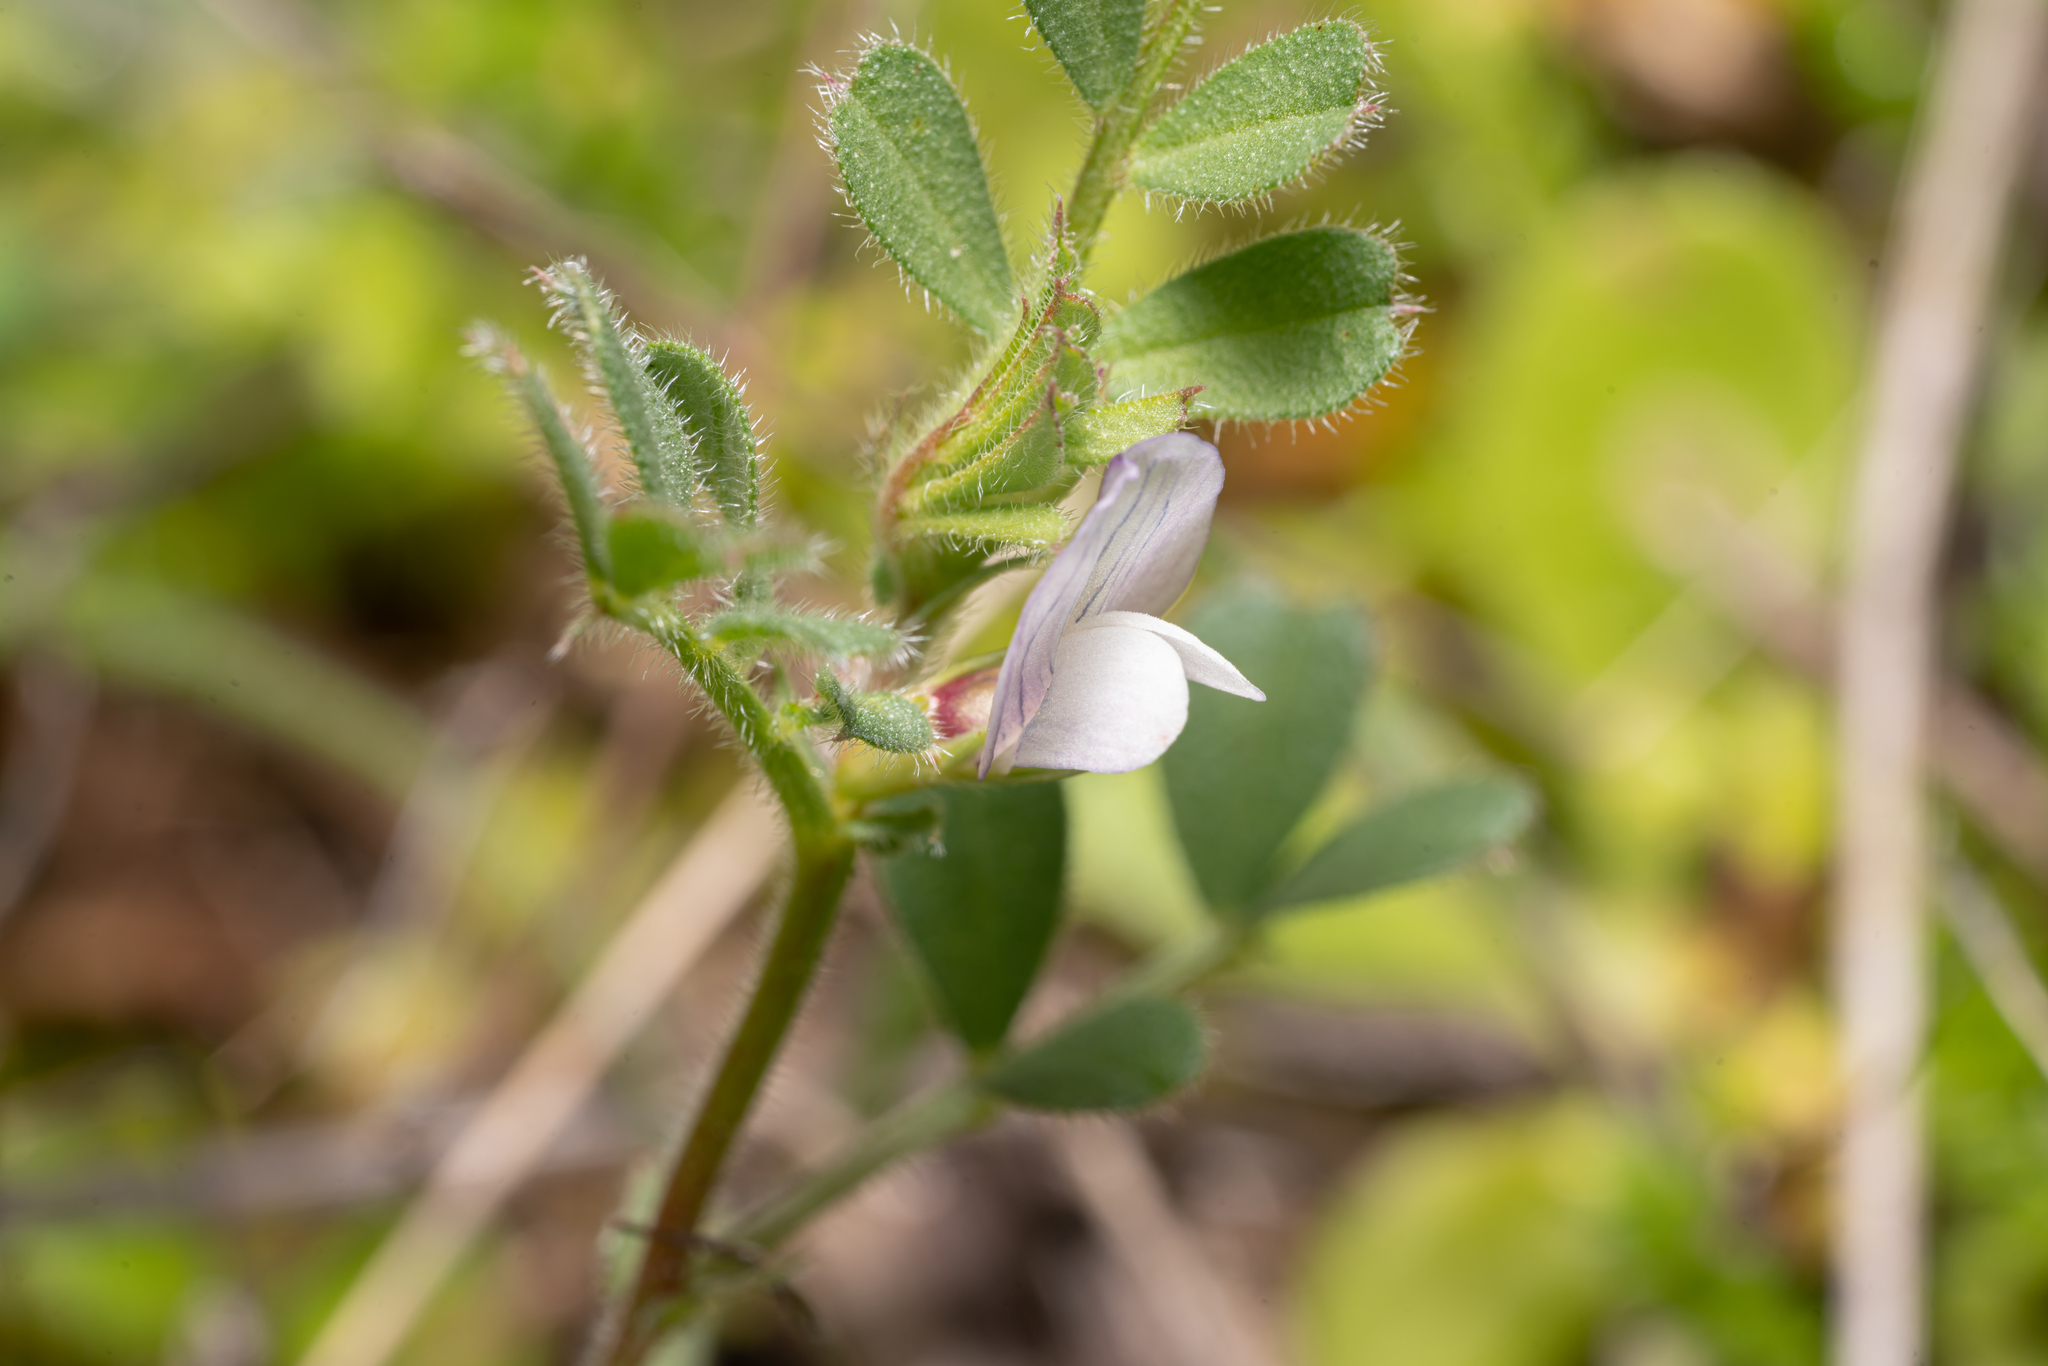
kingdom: Plantae
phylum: Tracheophyta
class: Magnoliopsida
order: Fabales
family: Fabaceae
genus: Vicia
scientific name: Vicia cuspidata
